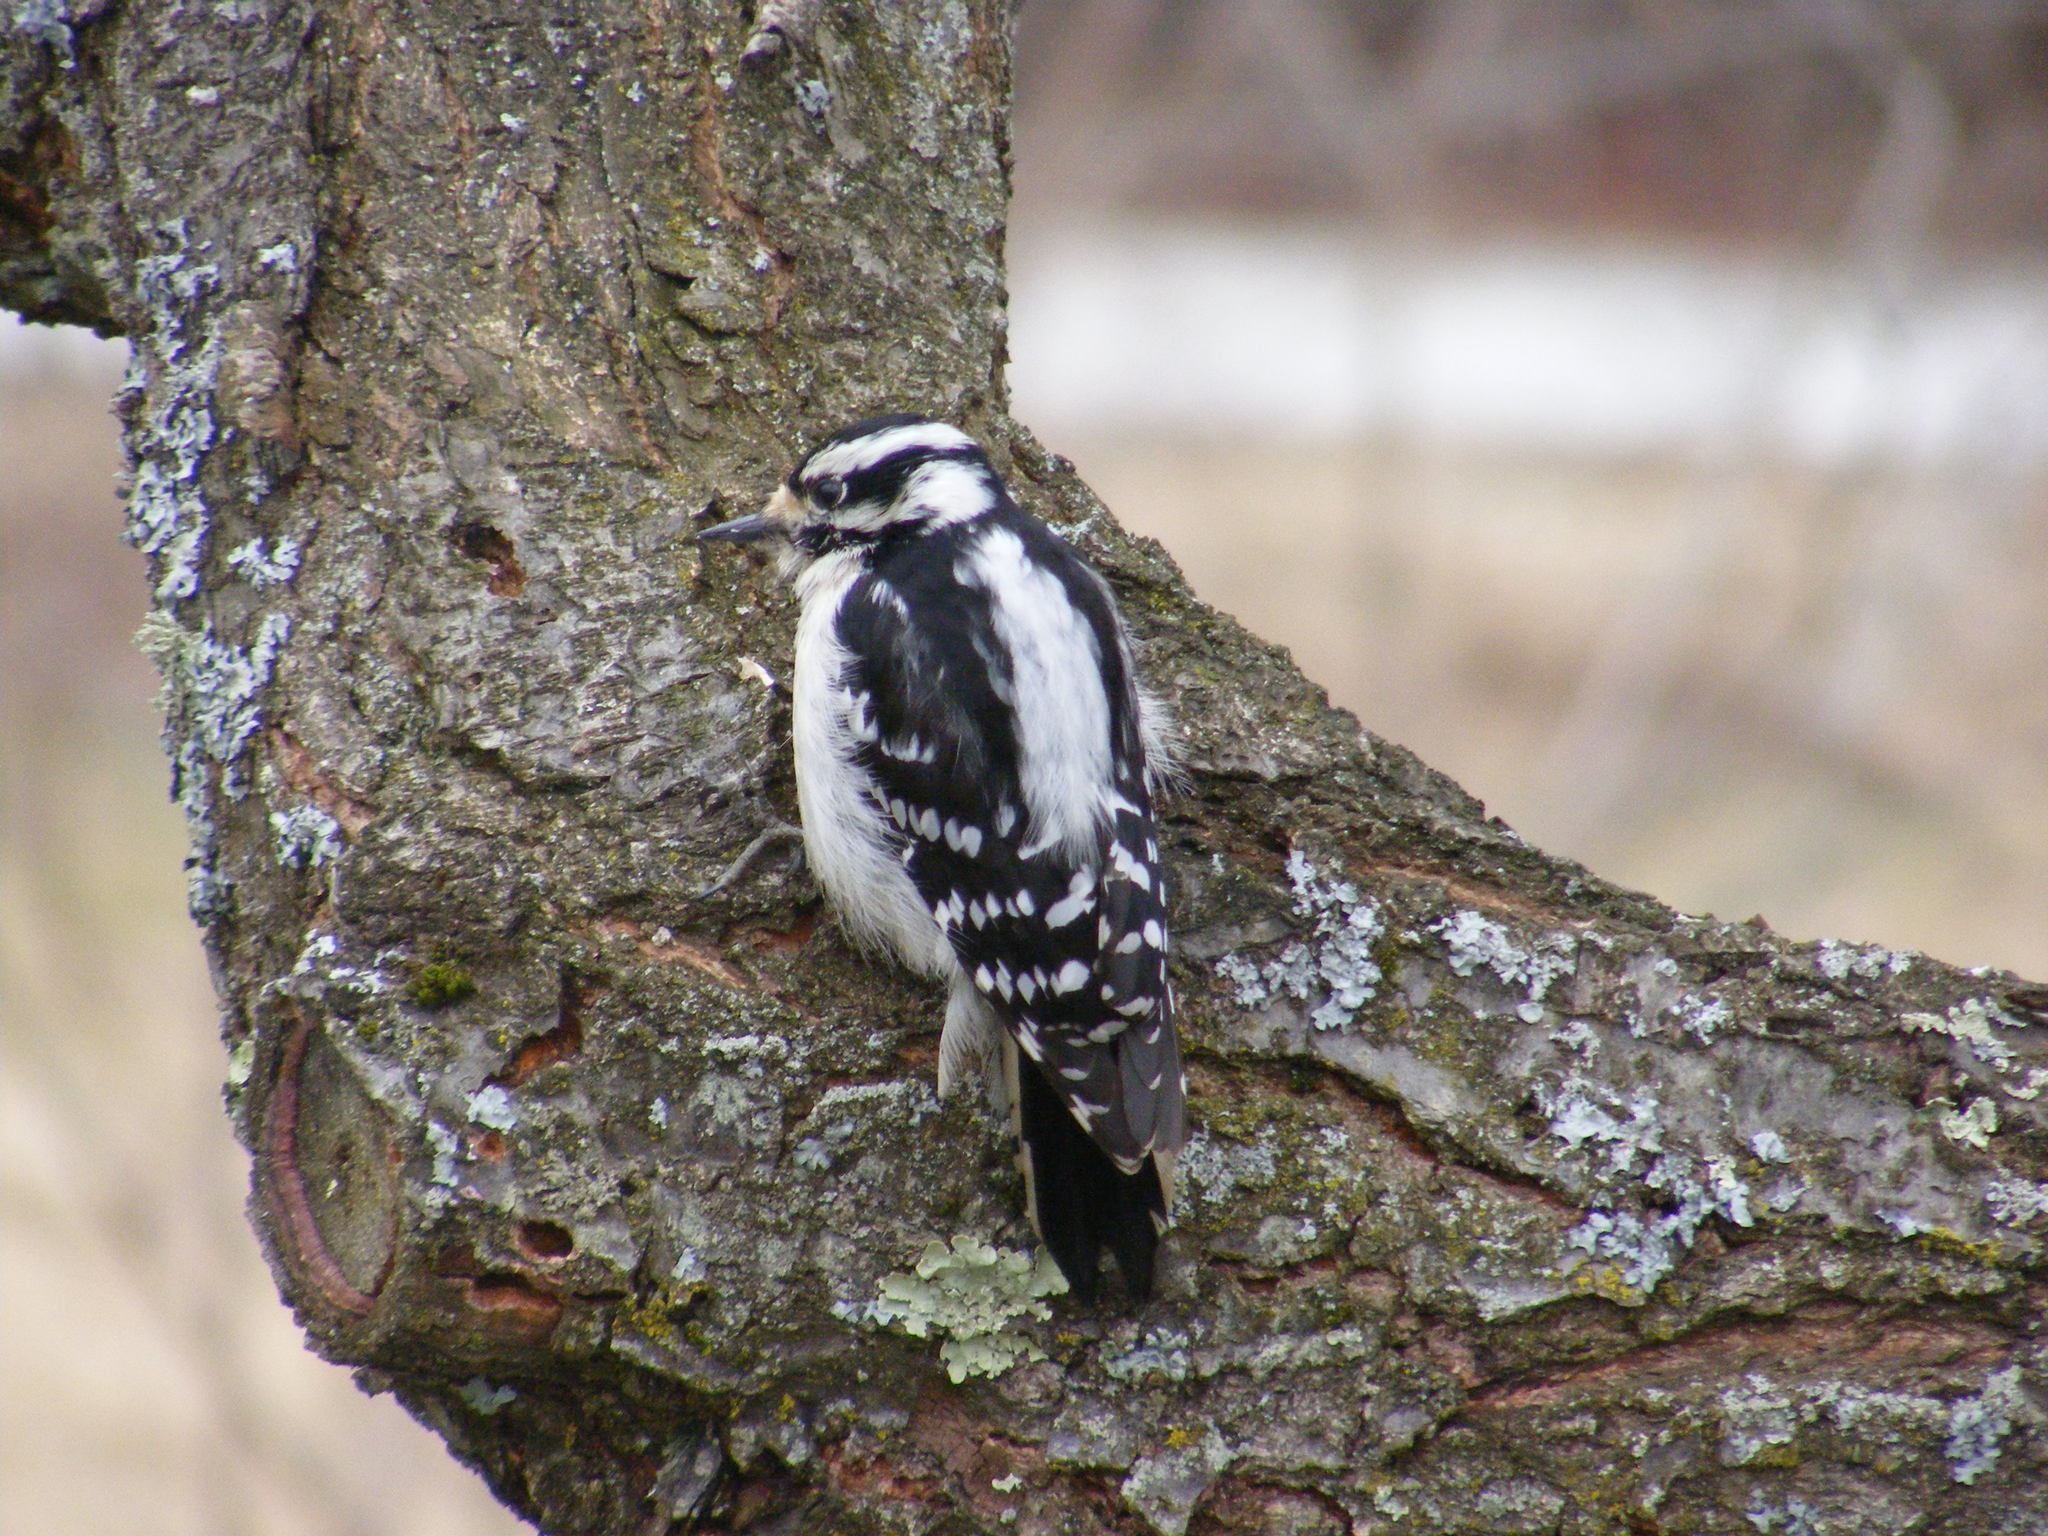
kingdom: Animalia
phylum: Chordata
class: Aves
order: Piciformes
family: Picidae
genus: Dryobates
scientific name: Dryobates pubescens
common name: Downy woodpecker
